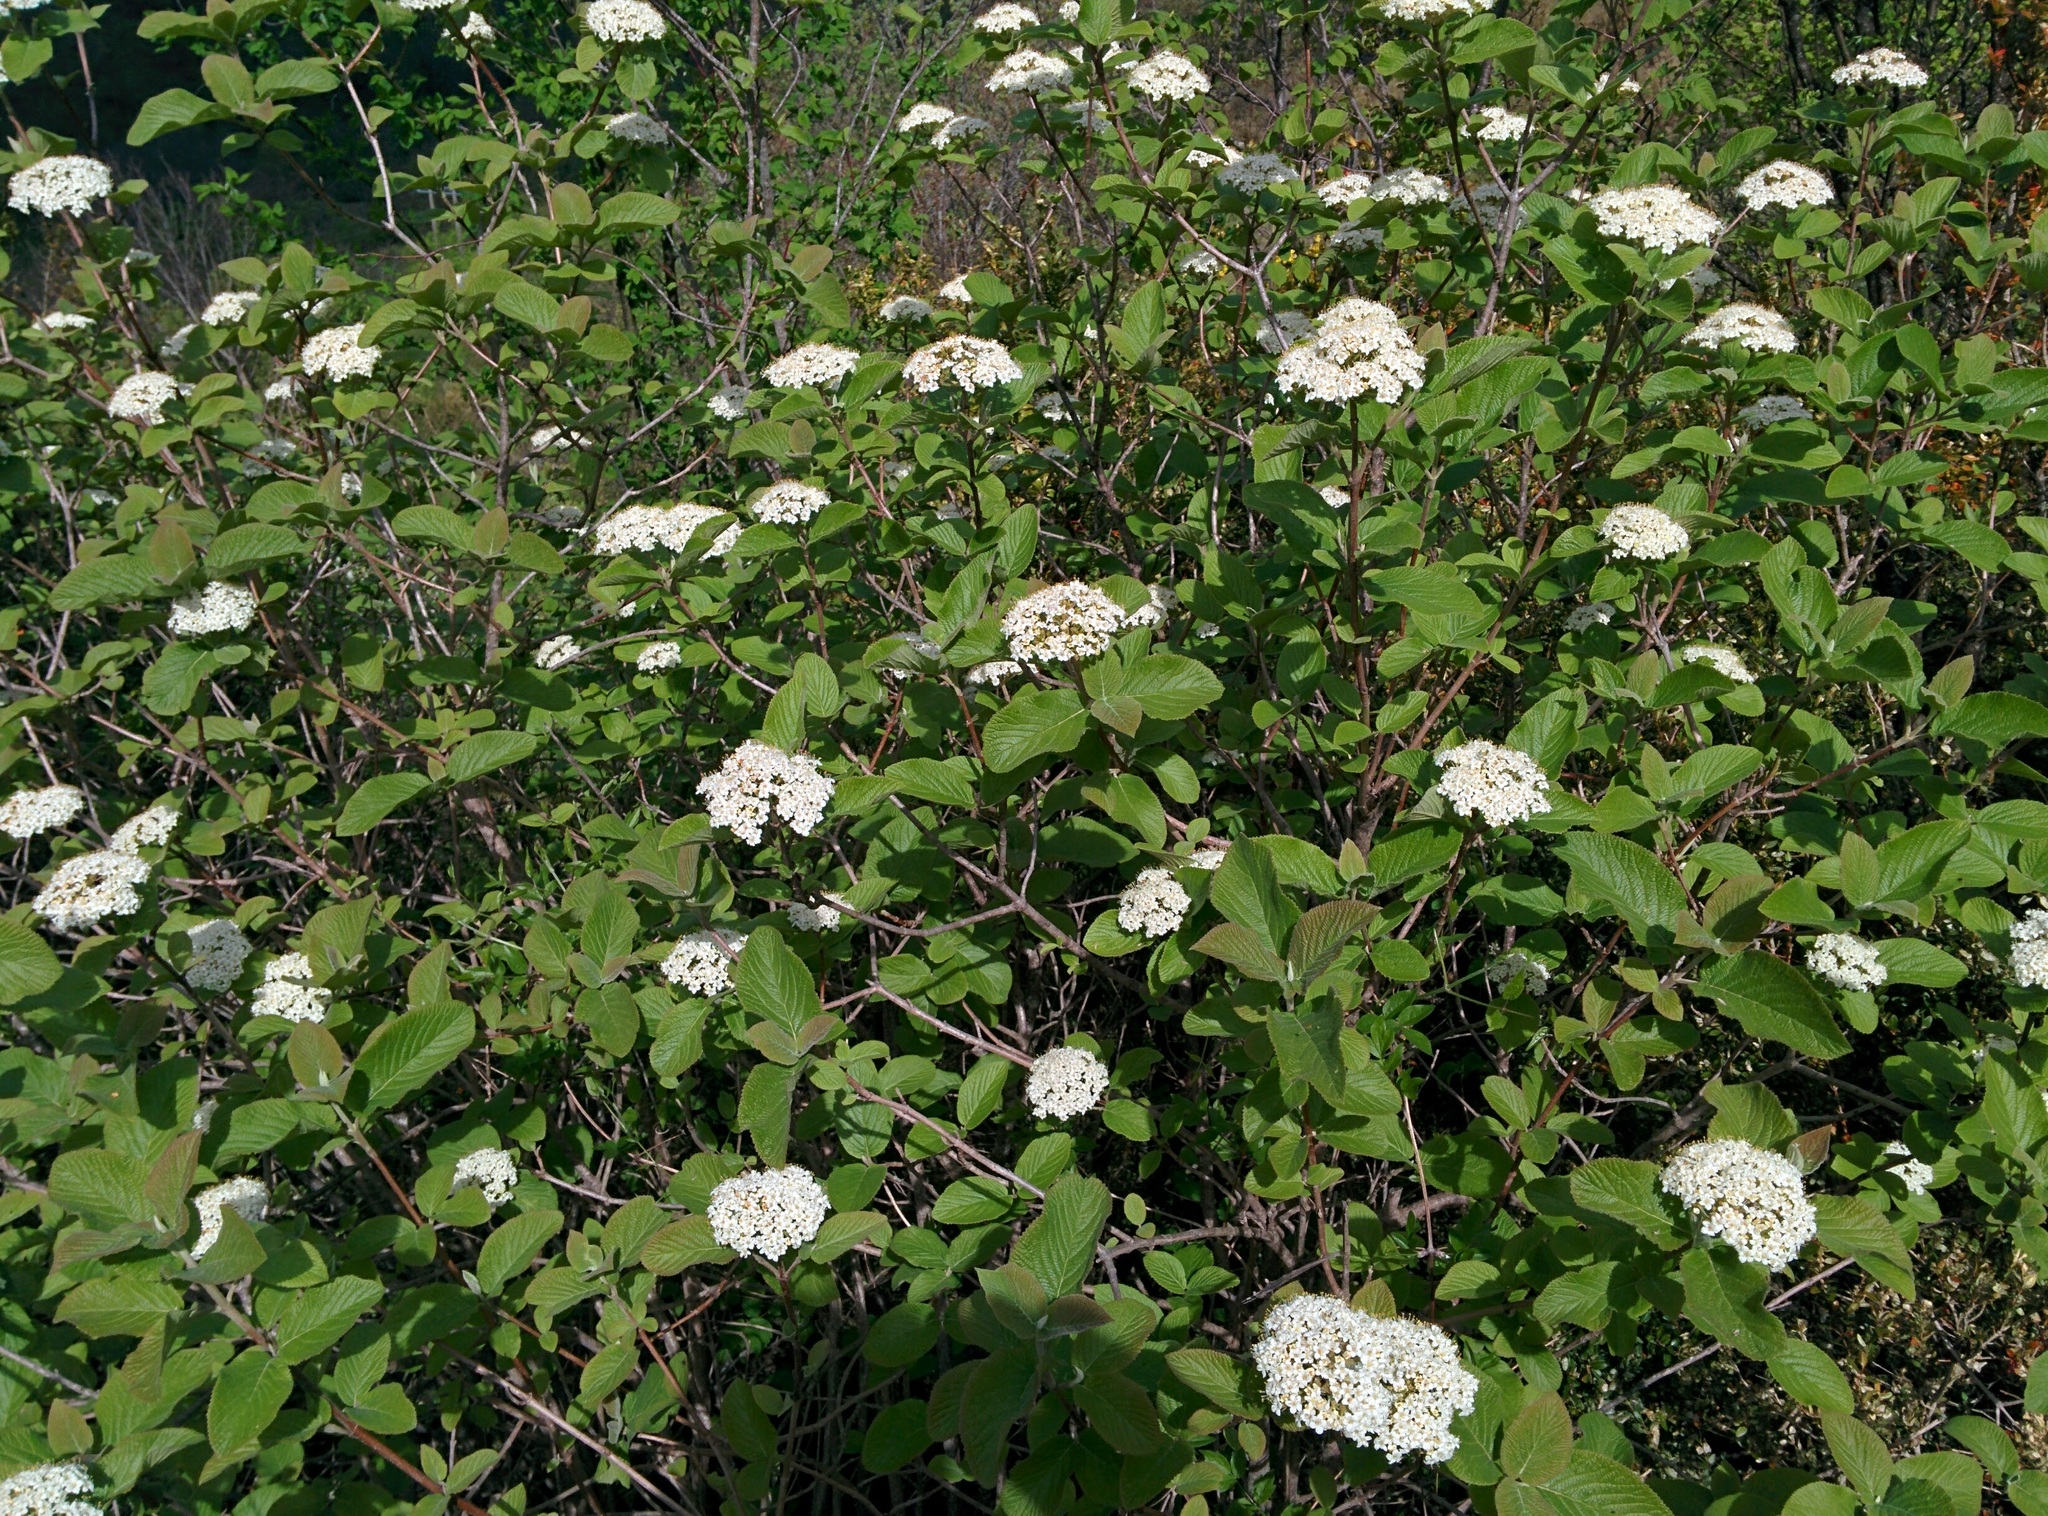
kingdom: Plantae
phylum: Tracheophyta
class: Magnoliopsida
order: Dipsacales
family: Viburnaceae
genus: Viburnum
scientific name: Viburnum lantana
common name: Wayfaring tree
